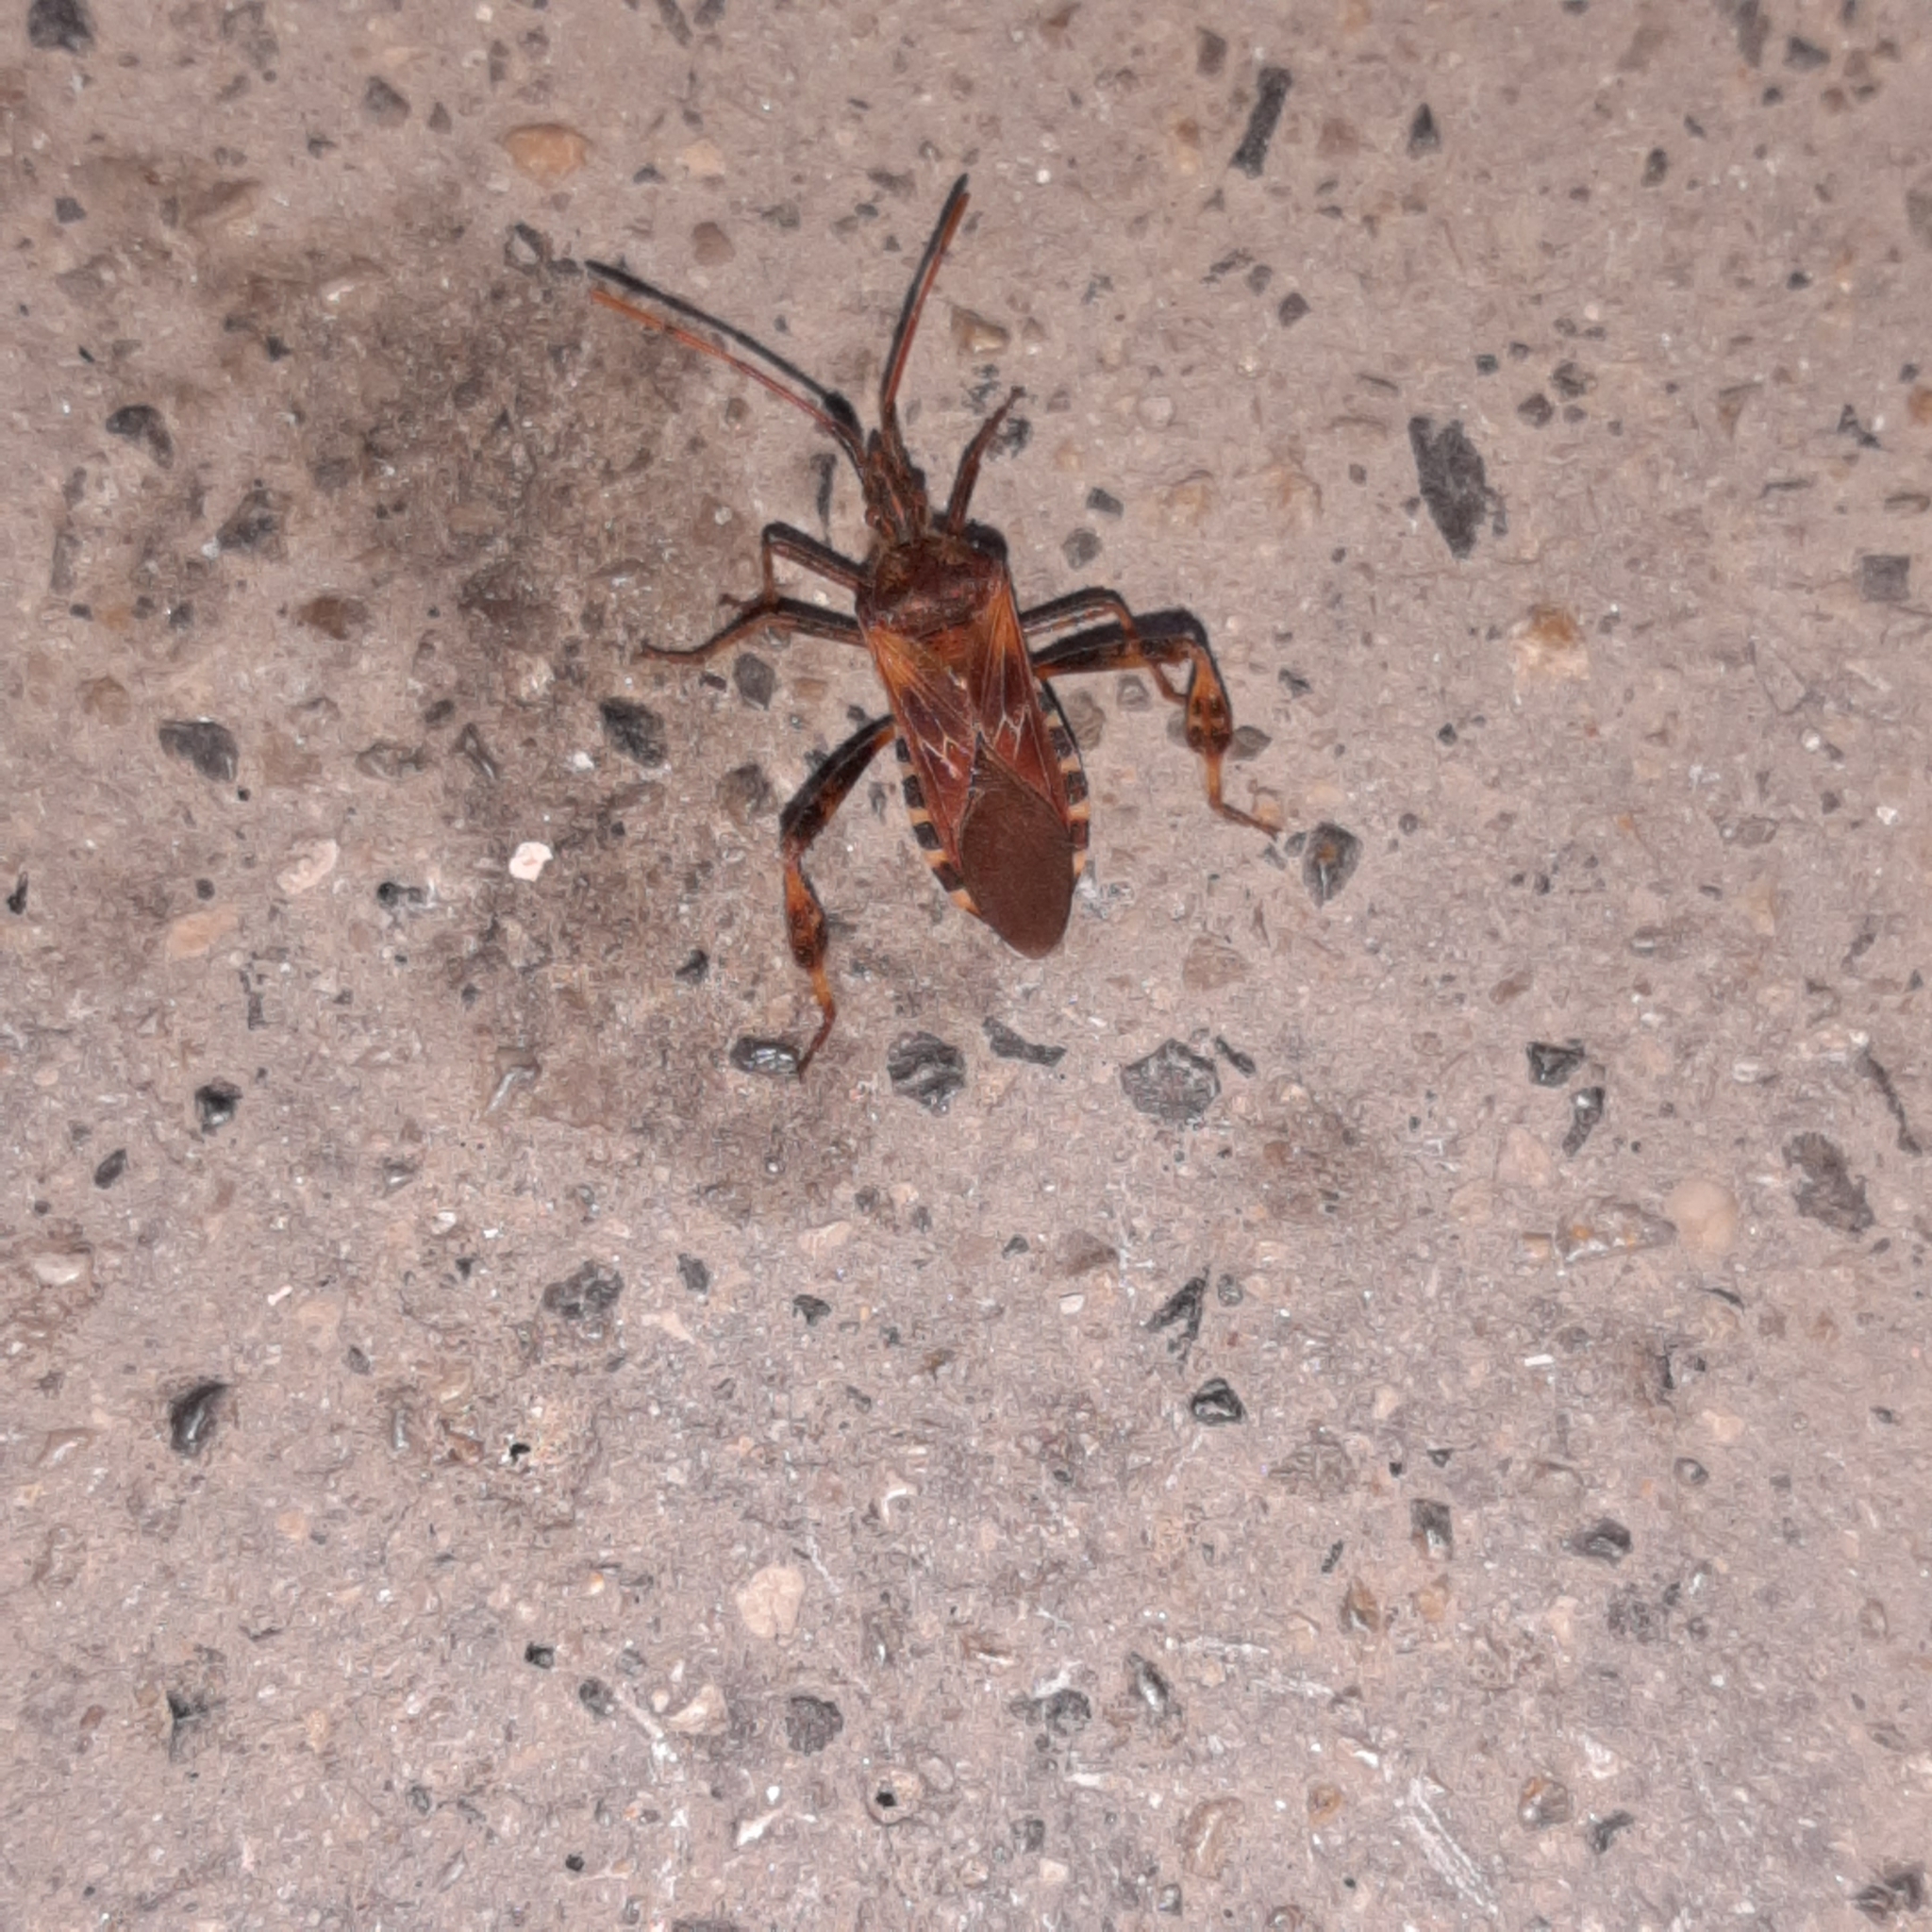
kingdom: Animalia
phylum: Arthropoda
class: Insecta
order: Hemiptera
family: Coreidae
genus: Leptoglossus
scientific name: Leptoglossus occidentalis
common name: Western conifer-seed bug
